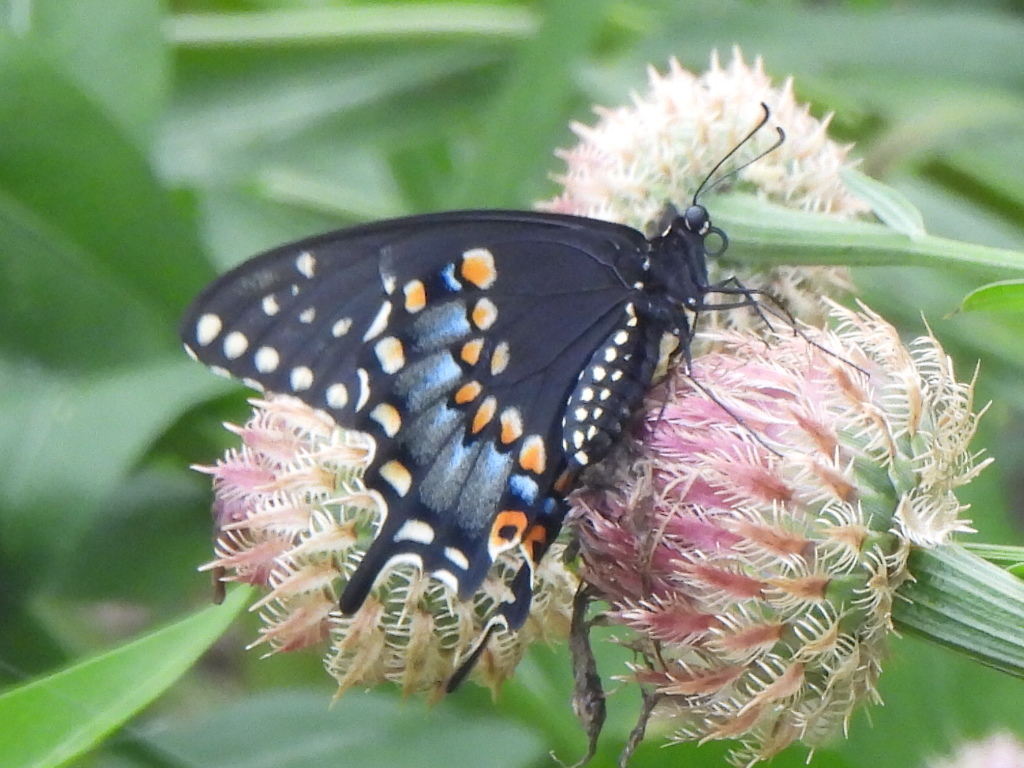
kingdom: Animalia
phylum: Arthropoda
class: Insecta
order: Lepidoptera
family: Papilionidae
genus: Papilio
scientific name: Papilio polyxenes
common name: Black swallowtail
